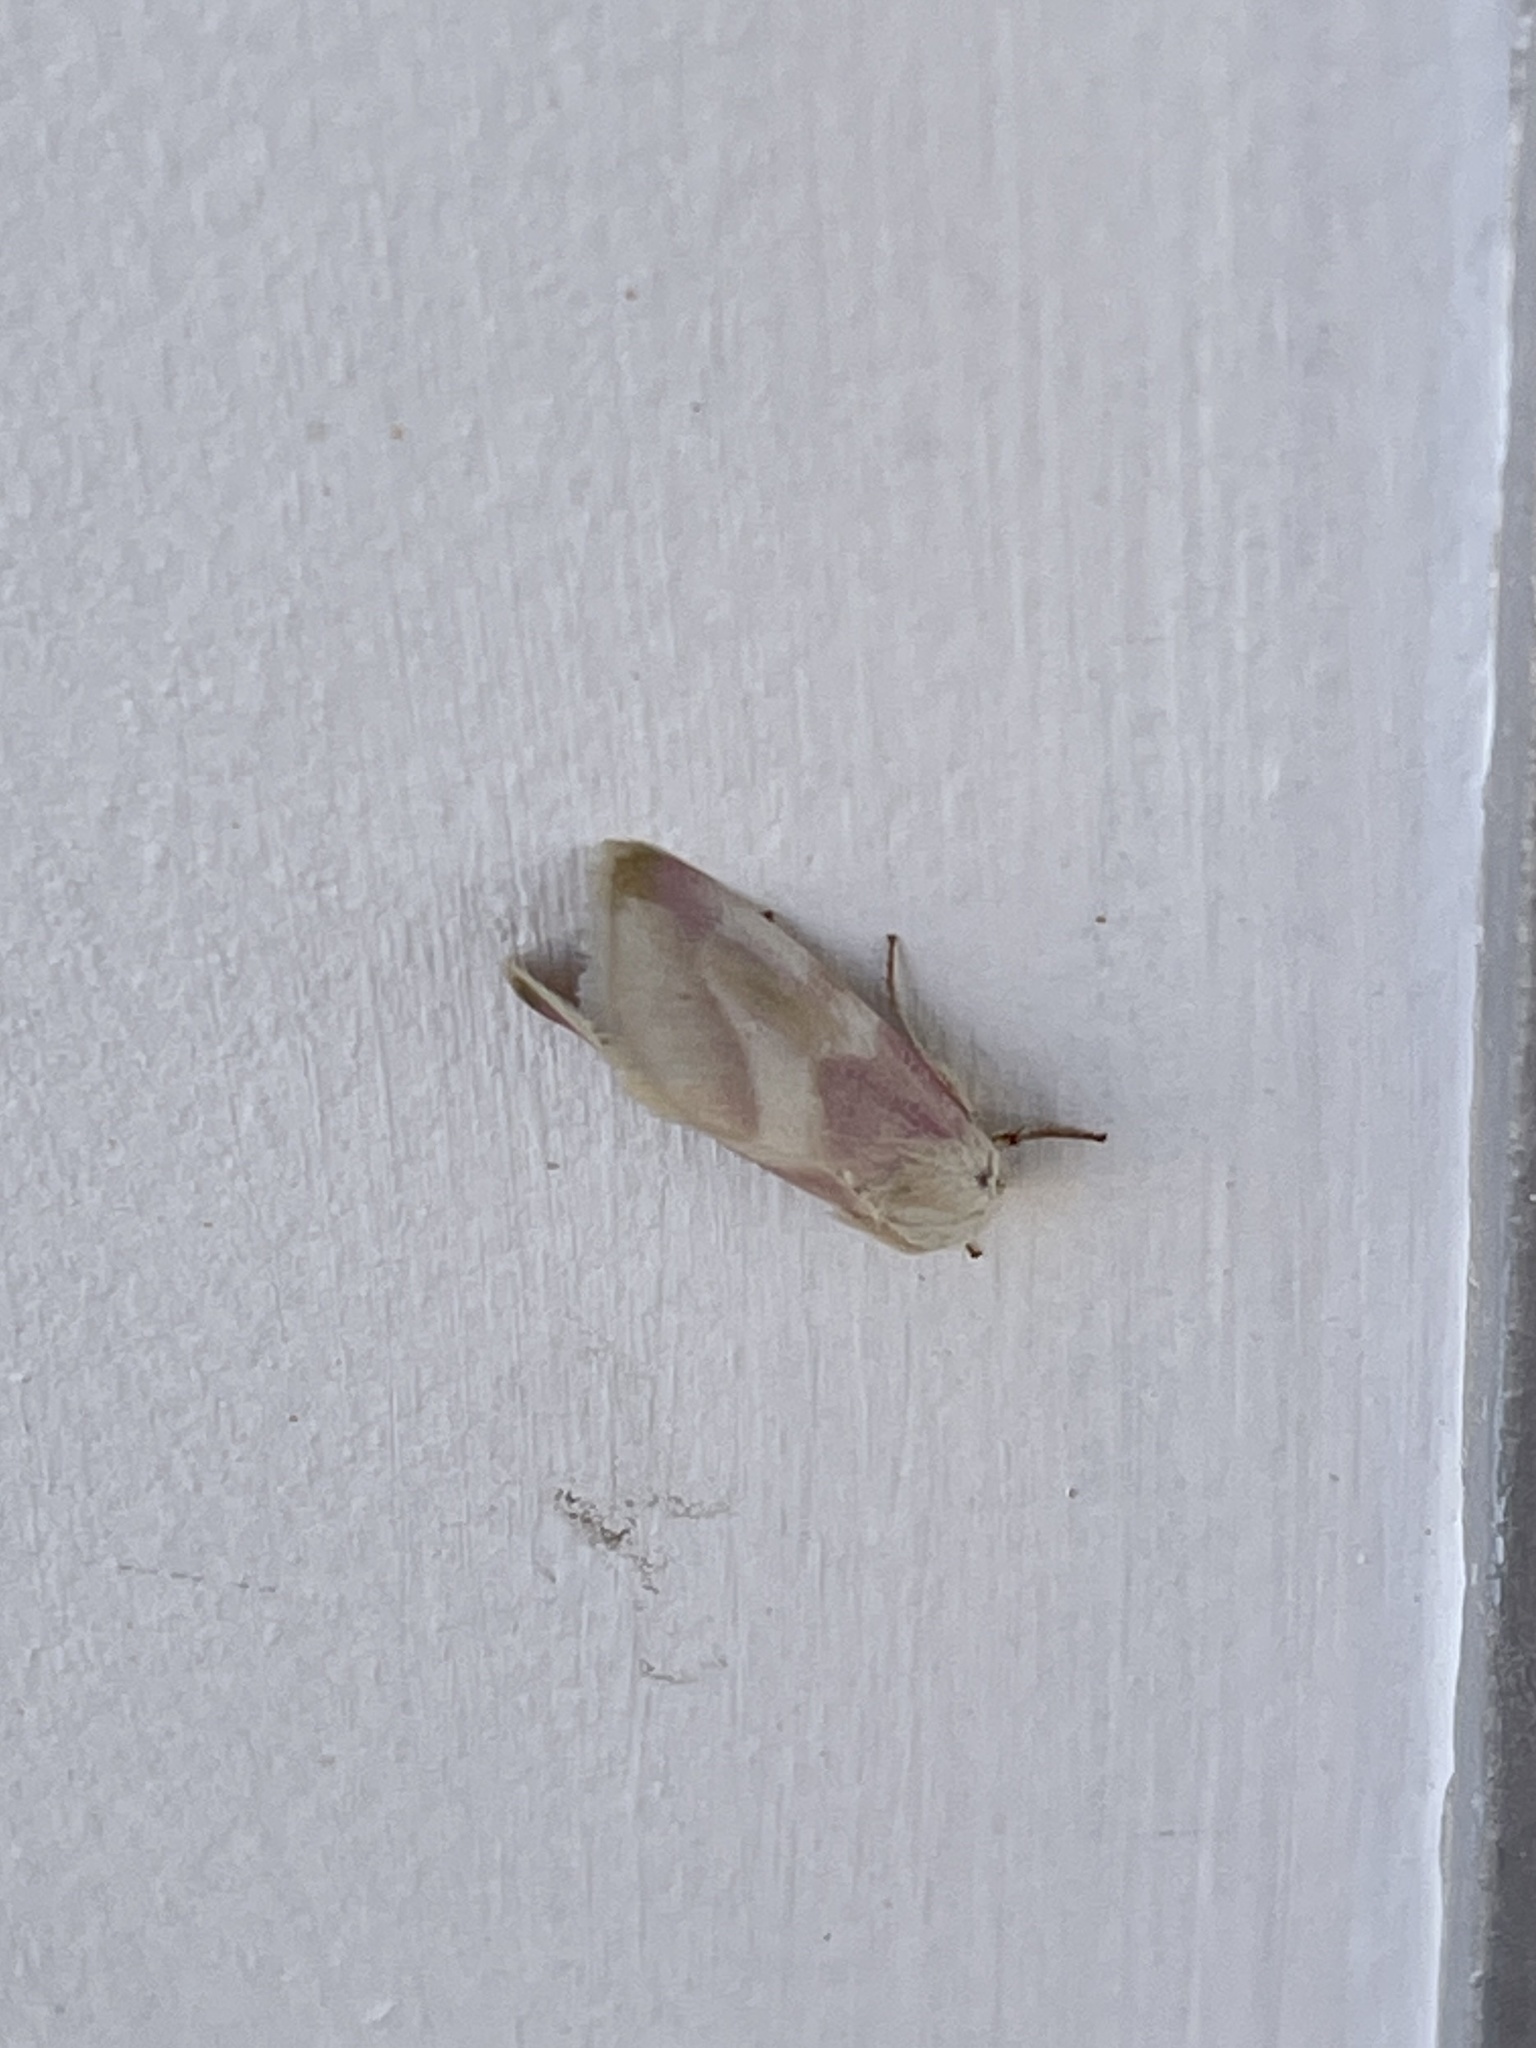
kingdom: Animalia
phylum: Arthropoda
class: Insecta
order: Lepidoptera
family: Noctuidae
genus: Schinia
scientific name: Schinia regina
